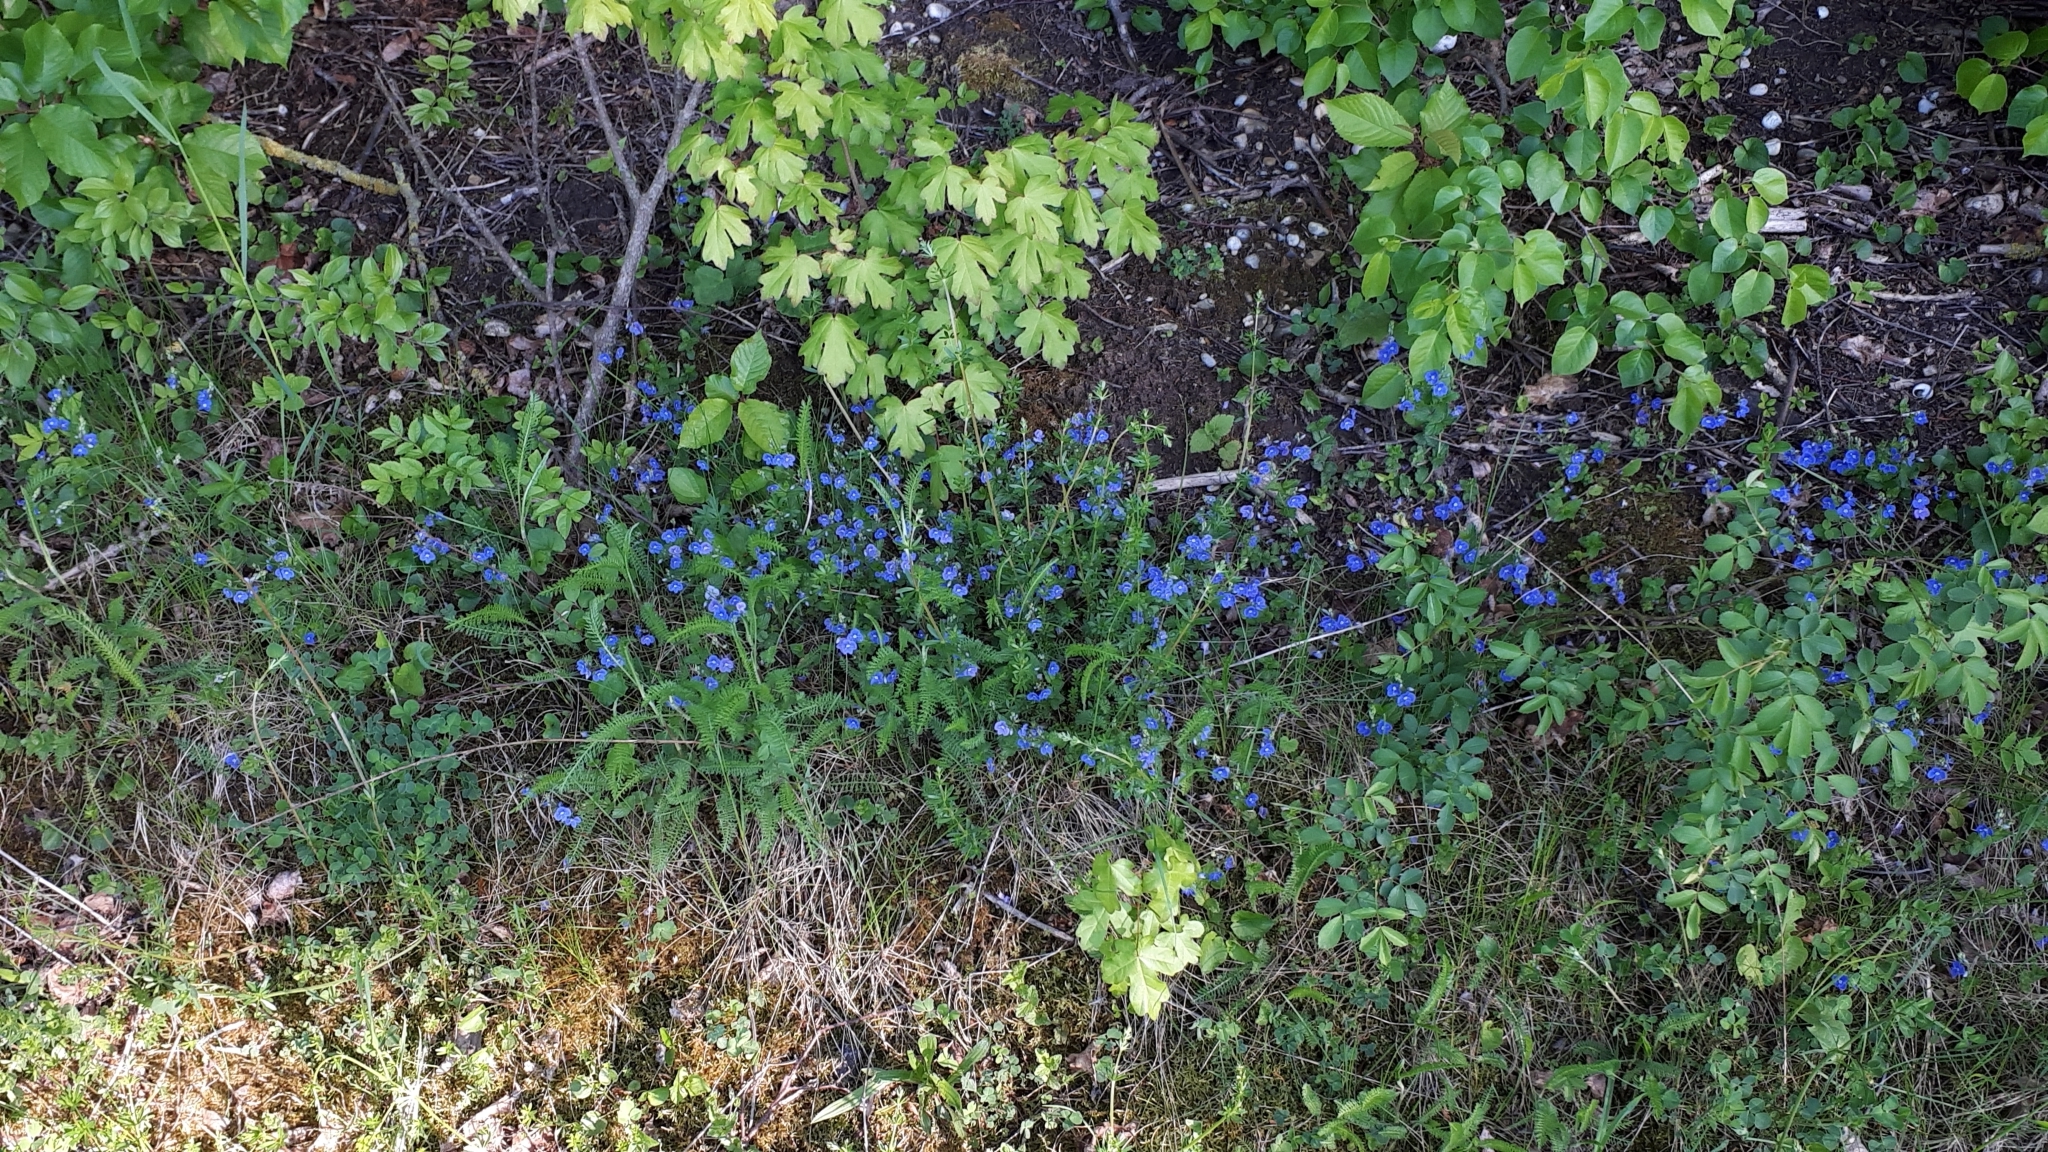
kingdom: Plantae
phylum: Tracheophyta
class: Magnoliopsida
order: Lamiales
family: Plantaginaceae
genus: Veronica
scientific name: Veronica chamaedrys
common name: Germander speedwell
